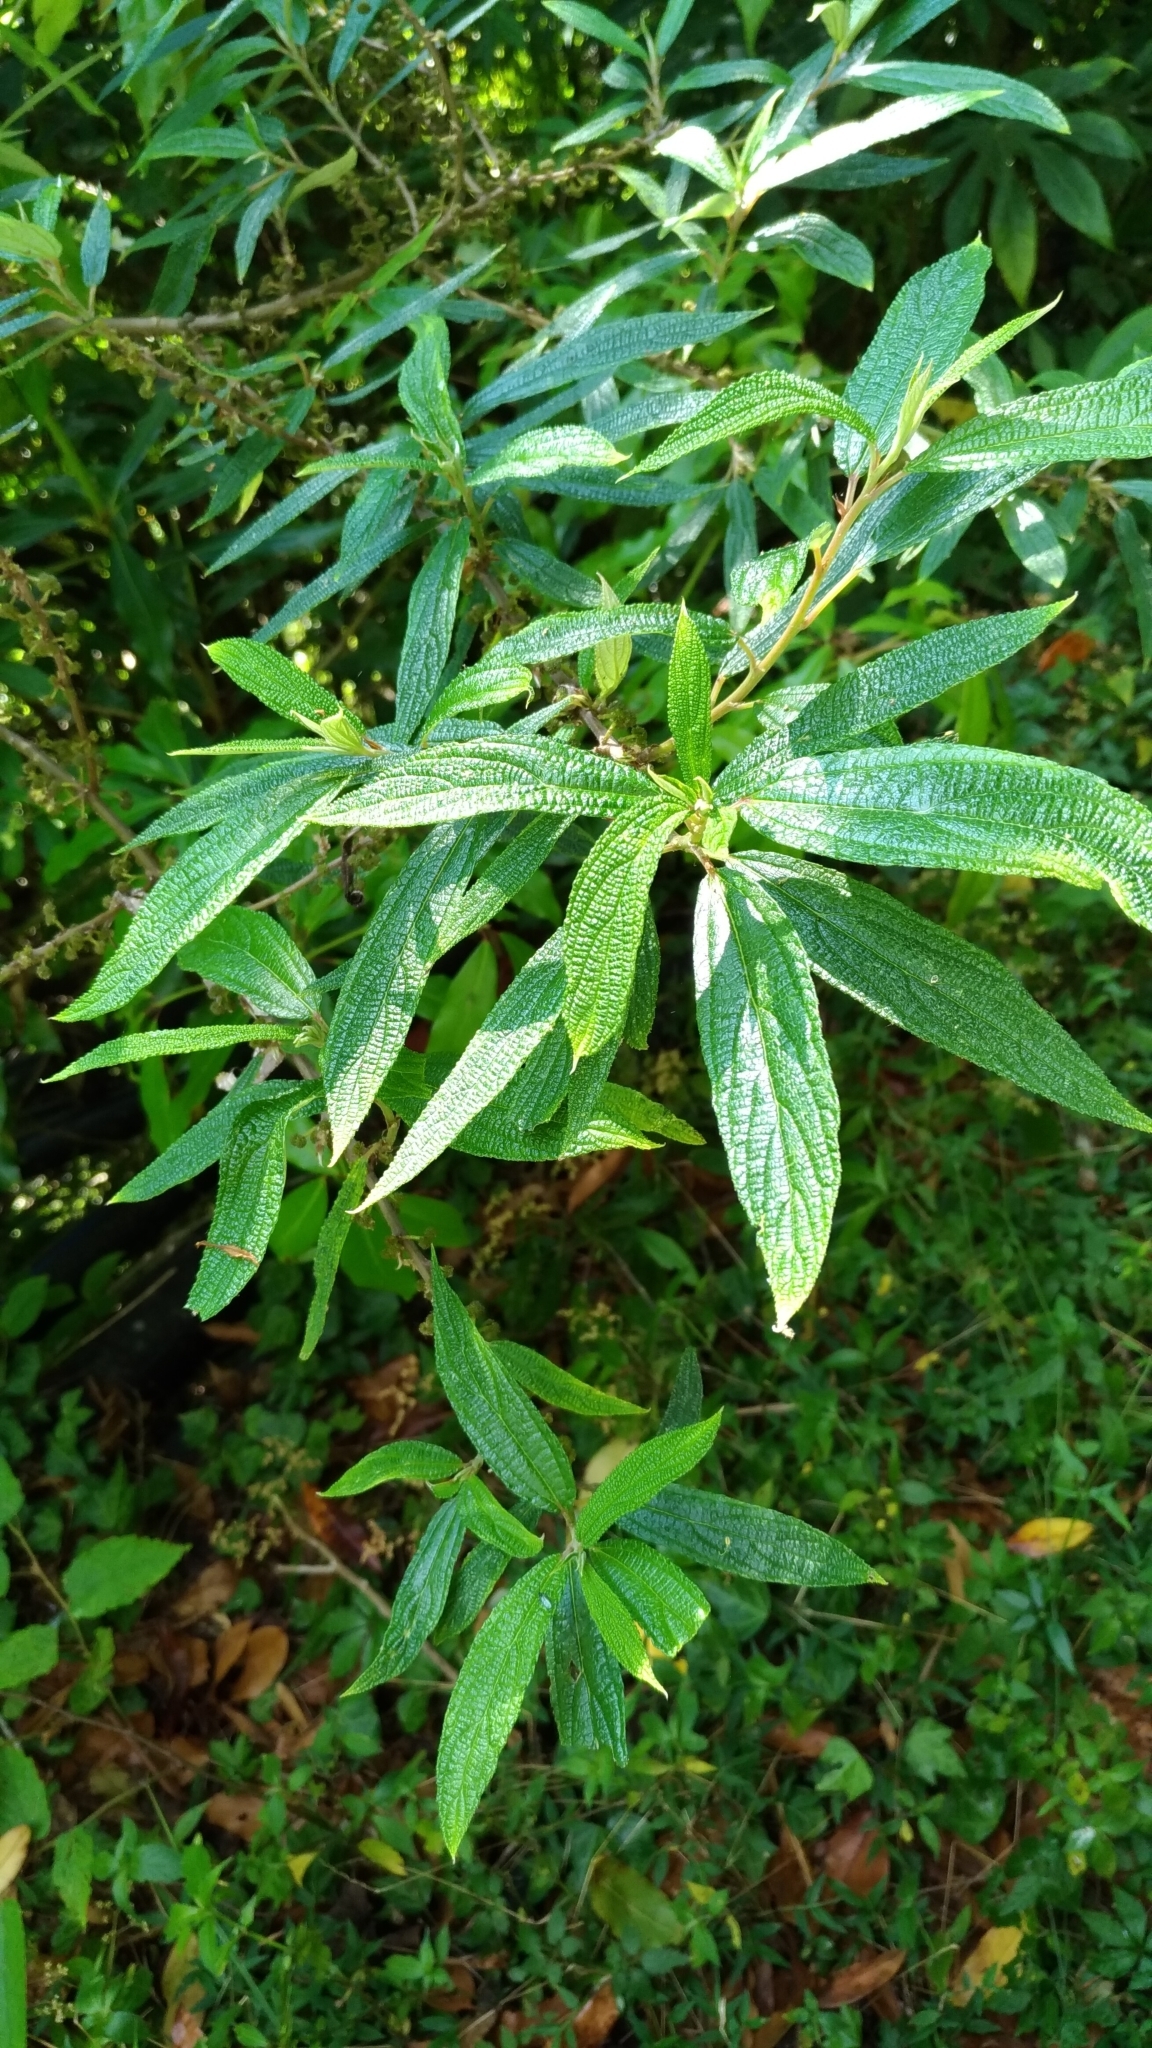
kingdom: Plantae
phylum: Tracheophyta
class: Magnoliopsida
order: Rosales
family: Urticaceae
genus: Debregeasia
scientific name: Debregeasia orientalis
